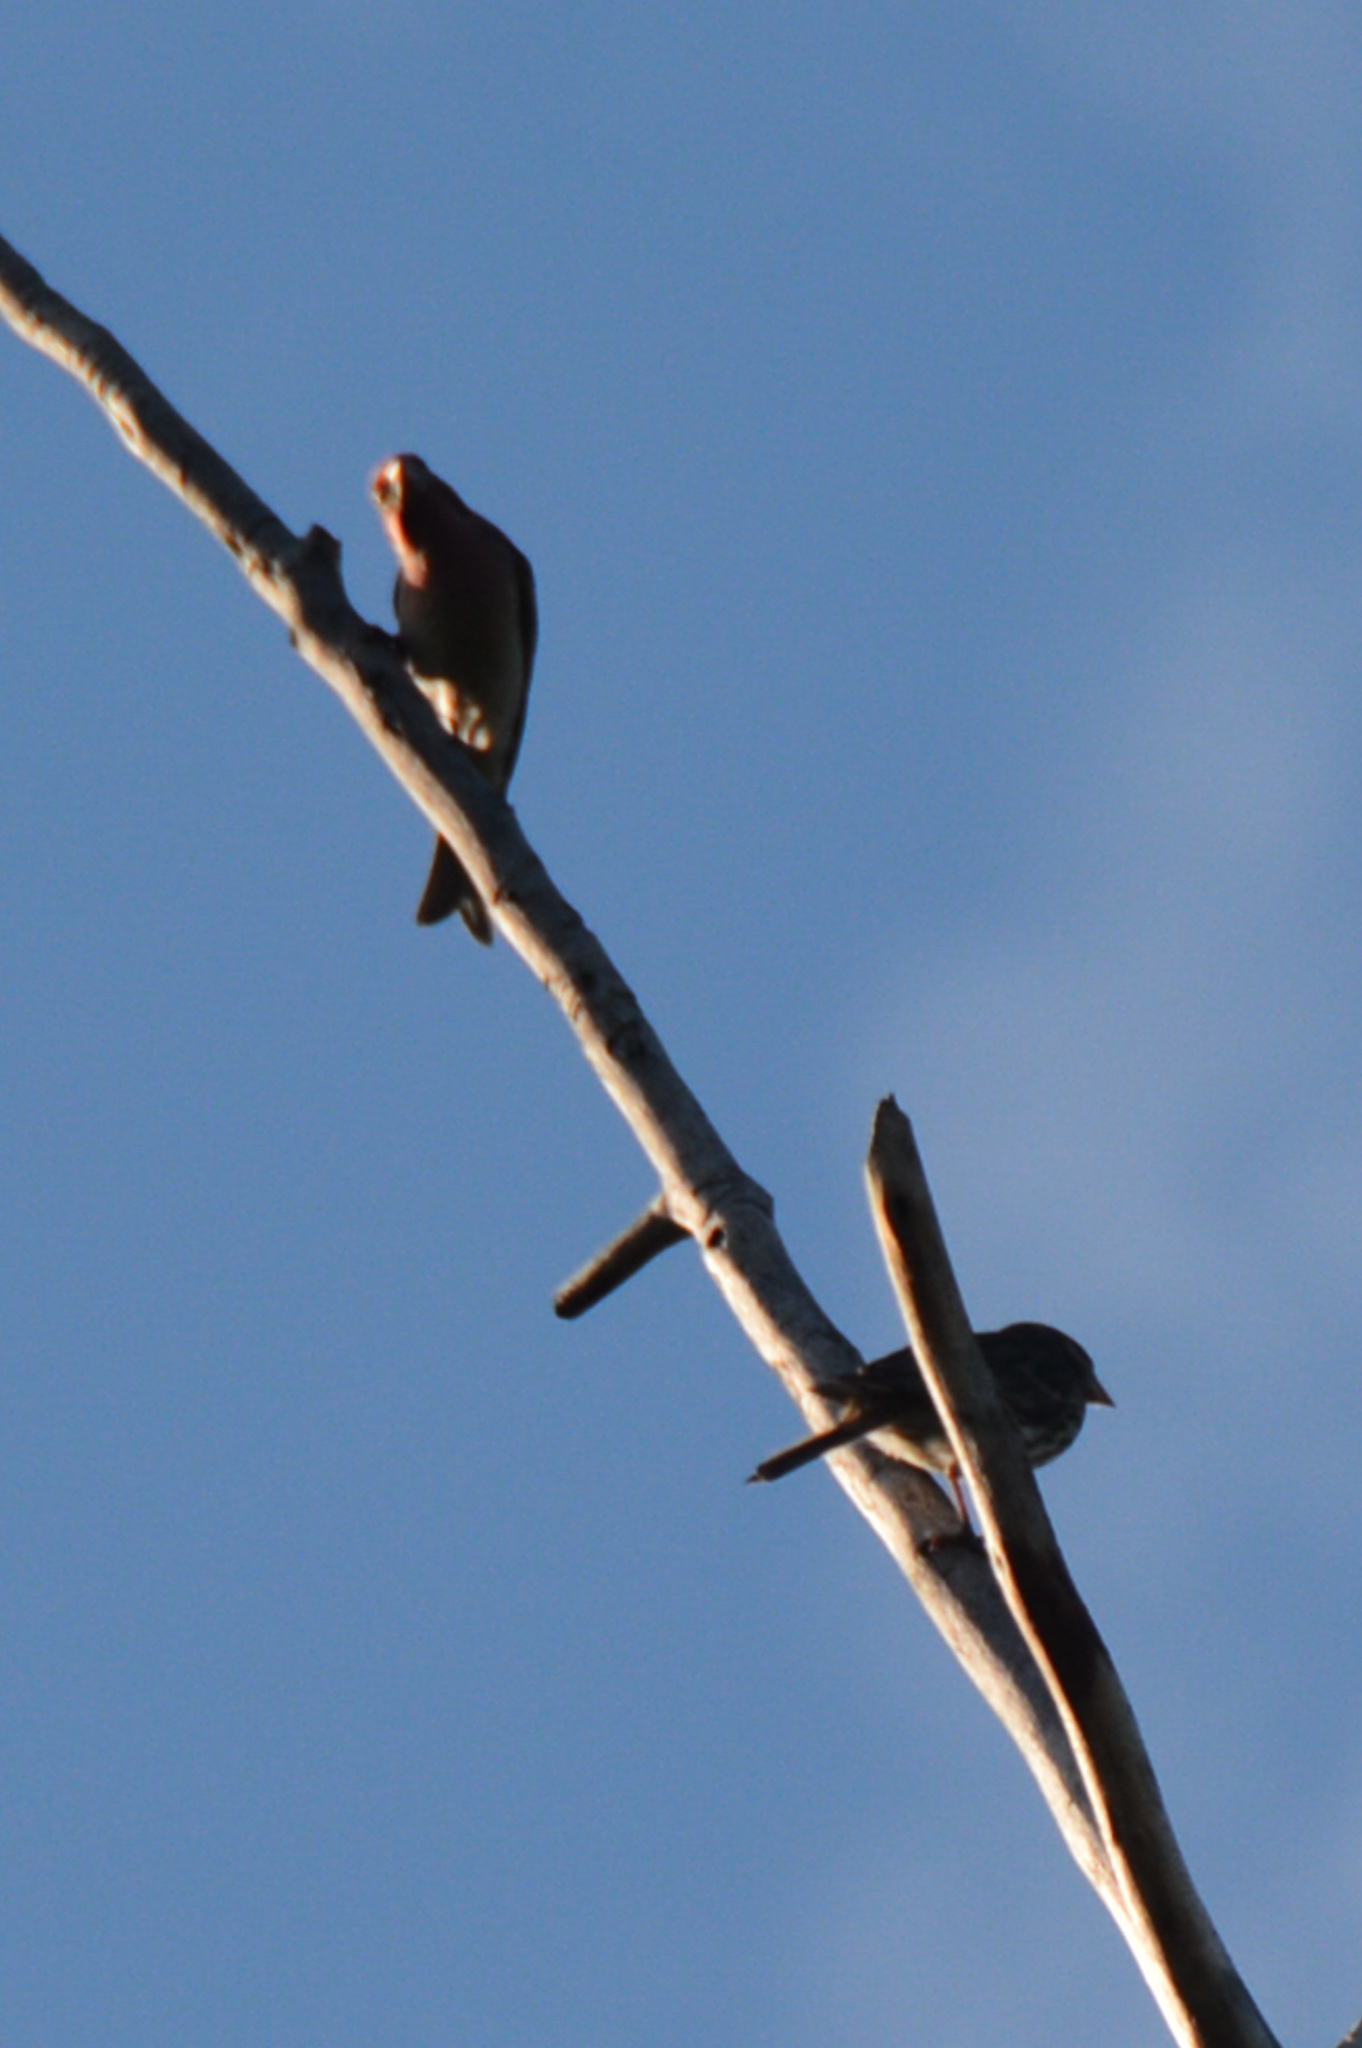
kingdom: Animalia
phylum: Chordata
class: Aves
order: Passeriformes
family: Fringillidae
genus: Haemorhous
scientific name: Haemorhous cassinii
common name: Cassin's finch
